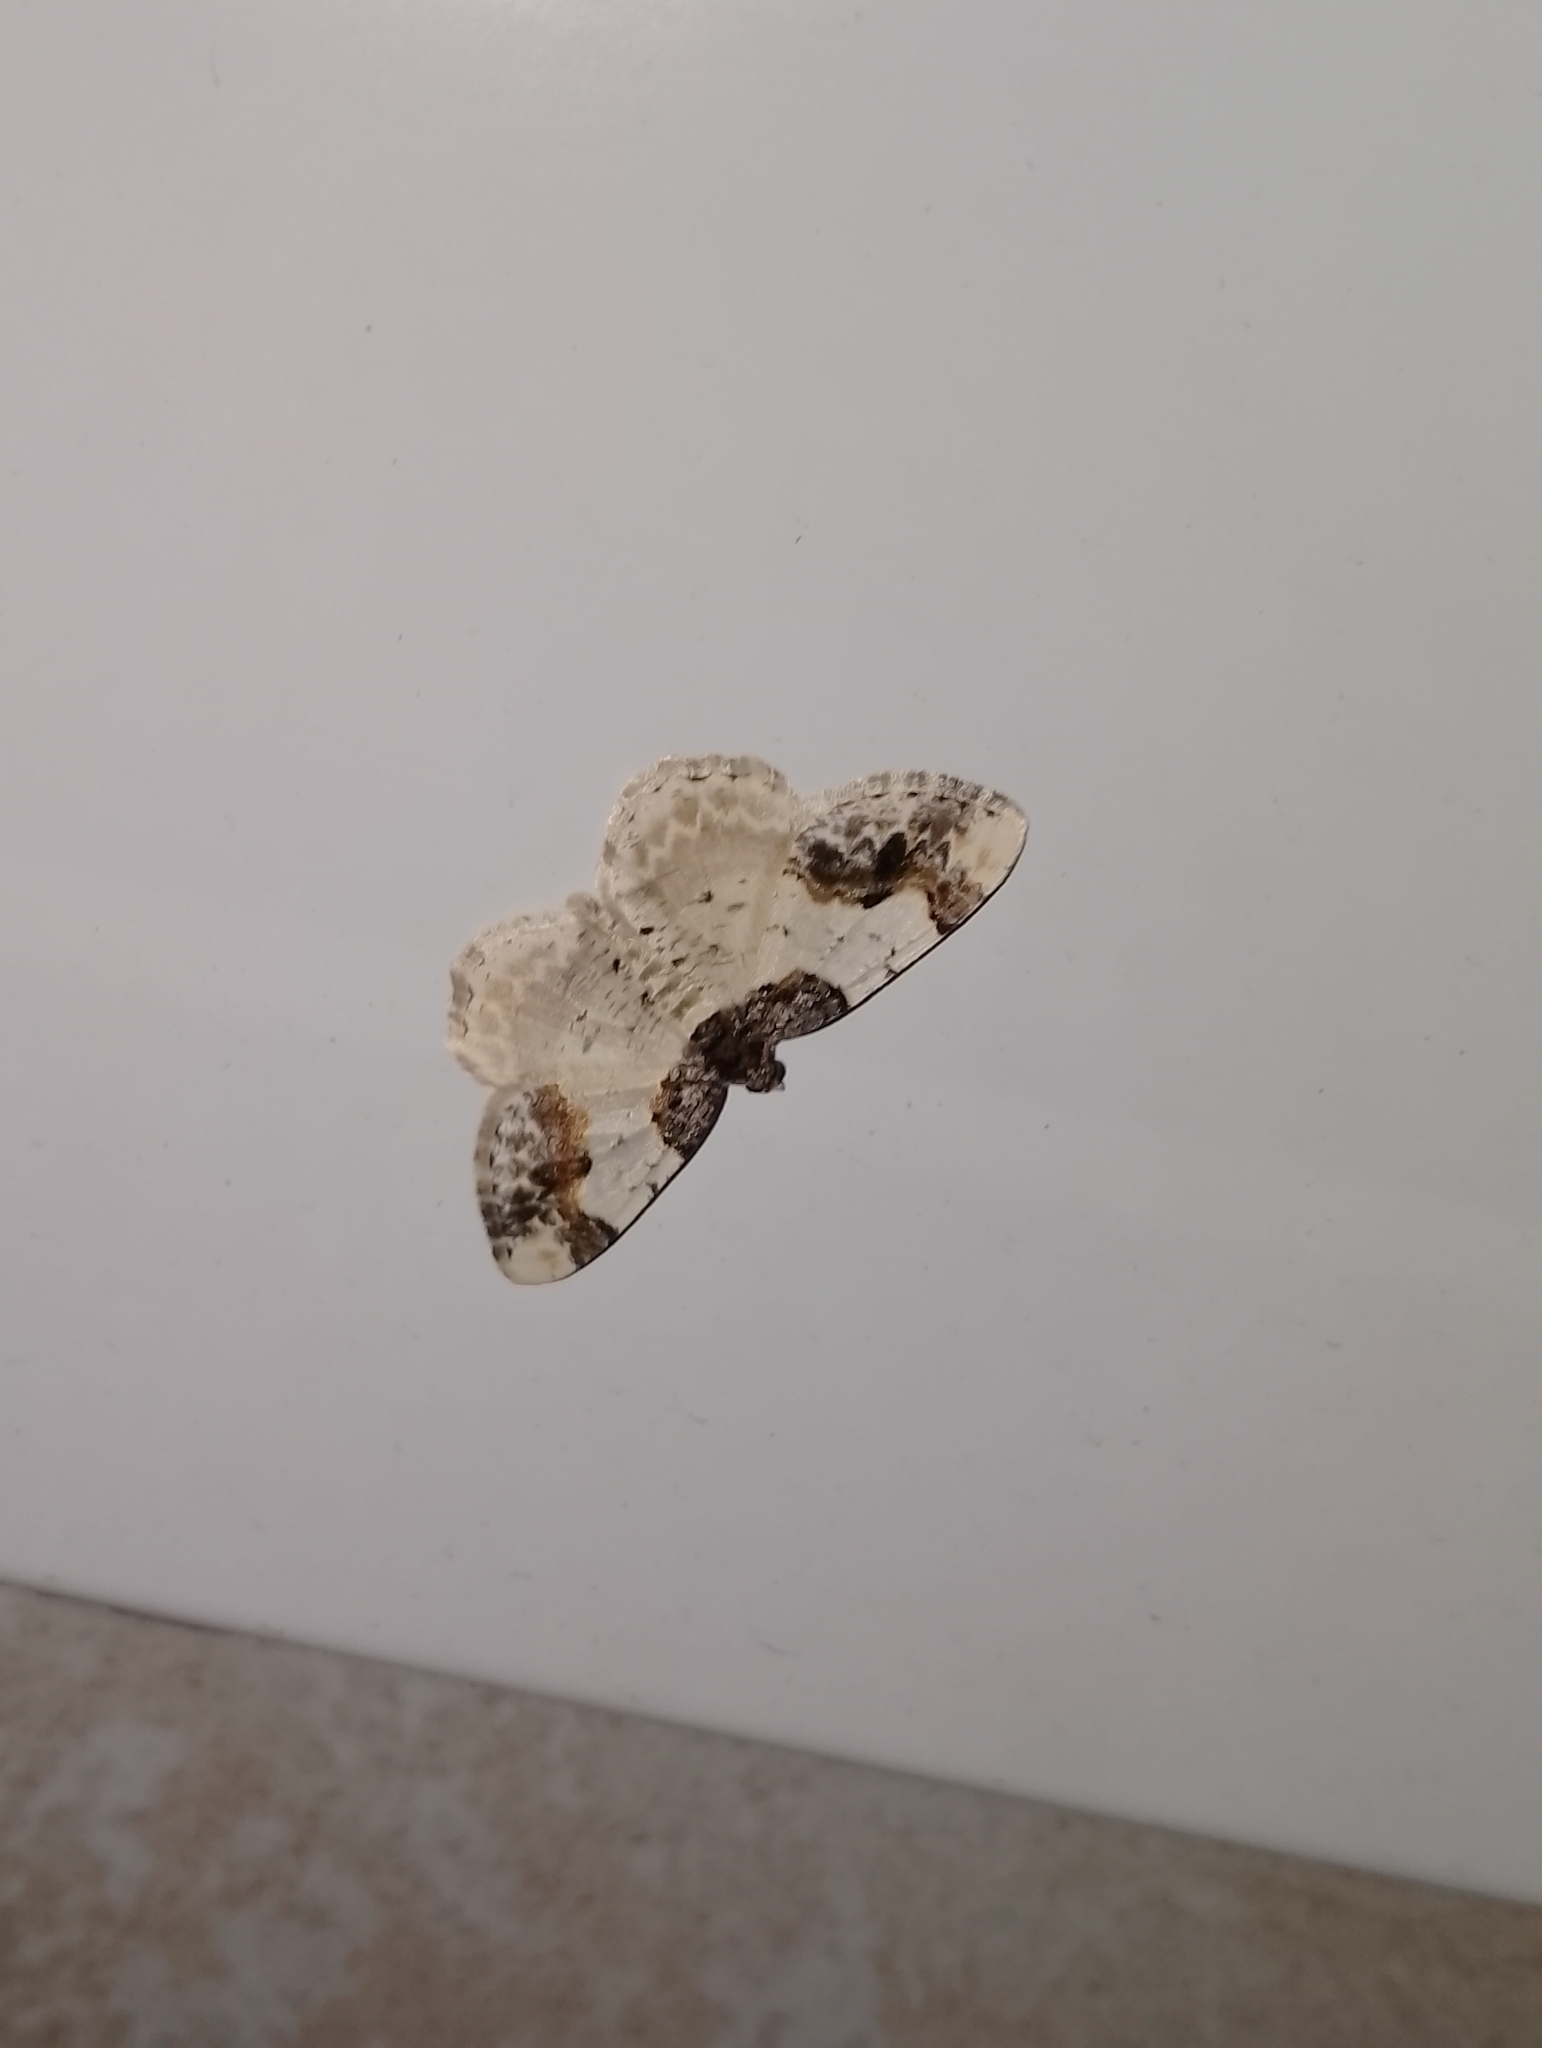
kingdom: Animalia
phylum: Arthropoda
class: Insecta
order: Lepidoptera
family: Geometridae
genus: Ligdia
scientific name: Ligdia adustata
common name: Scorched carpet
